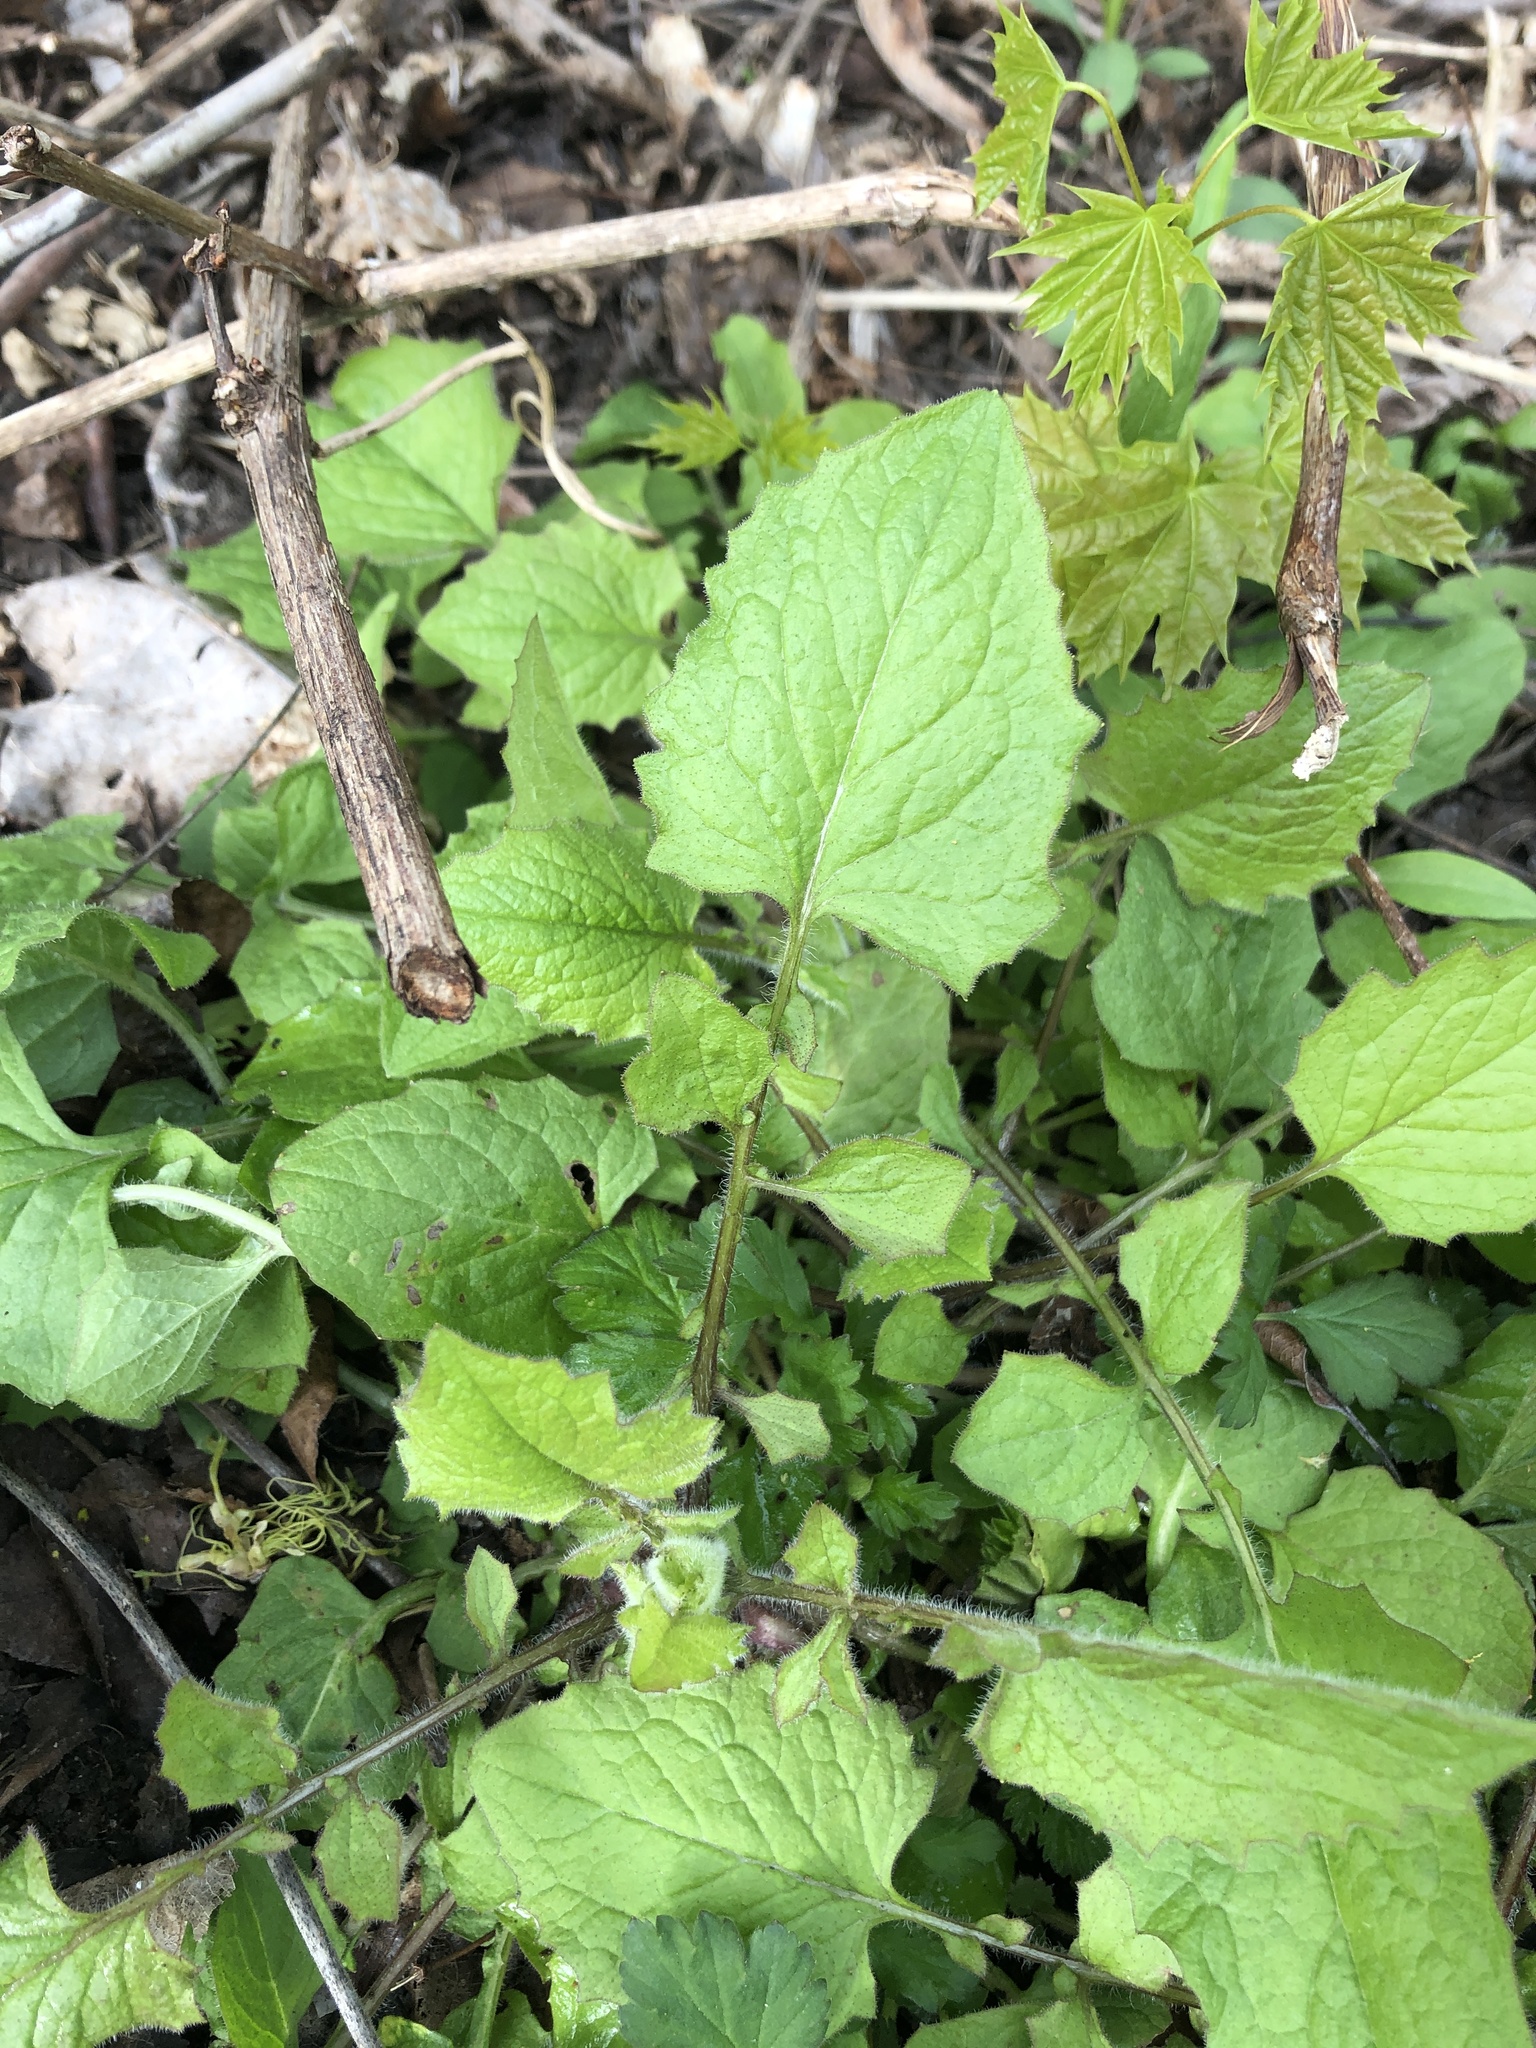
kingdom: Plantae
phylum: Tracheophyta
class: Magnoliopsida
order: Asterales
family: Asteraceae
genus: Lapsana
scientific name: Lapsana communis
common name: Nipplewort
